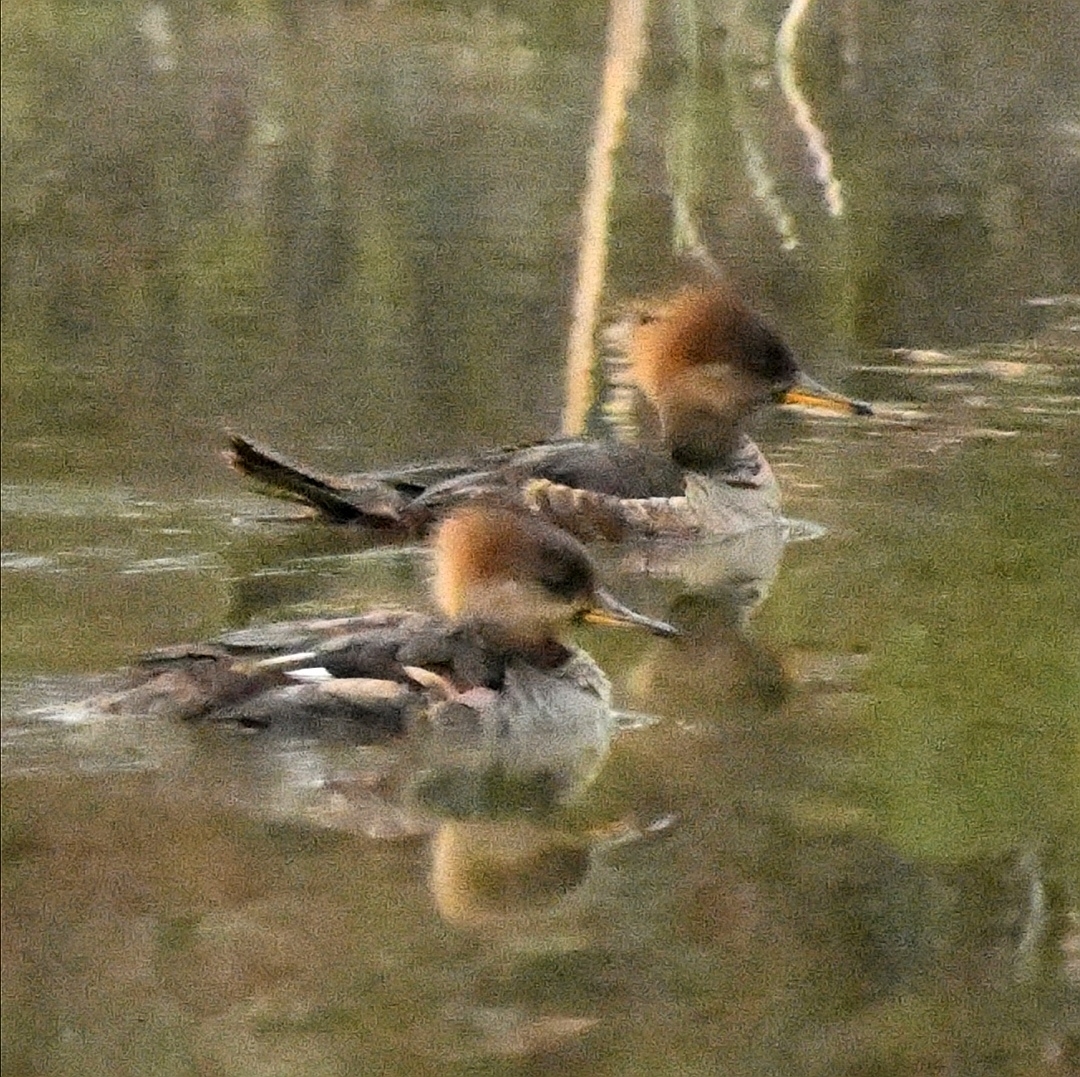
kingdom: Animalia
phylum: Chordata
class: Aves
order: Anseriformes
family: Anatidae
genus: Lophodytes
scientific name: Lophodytes cucullatus
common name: Hooded merganser
